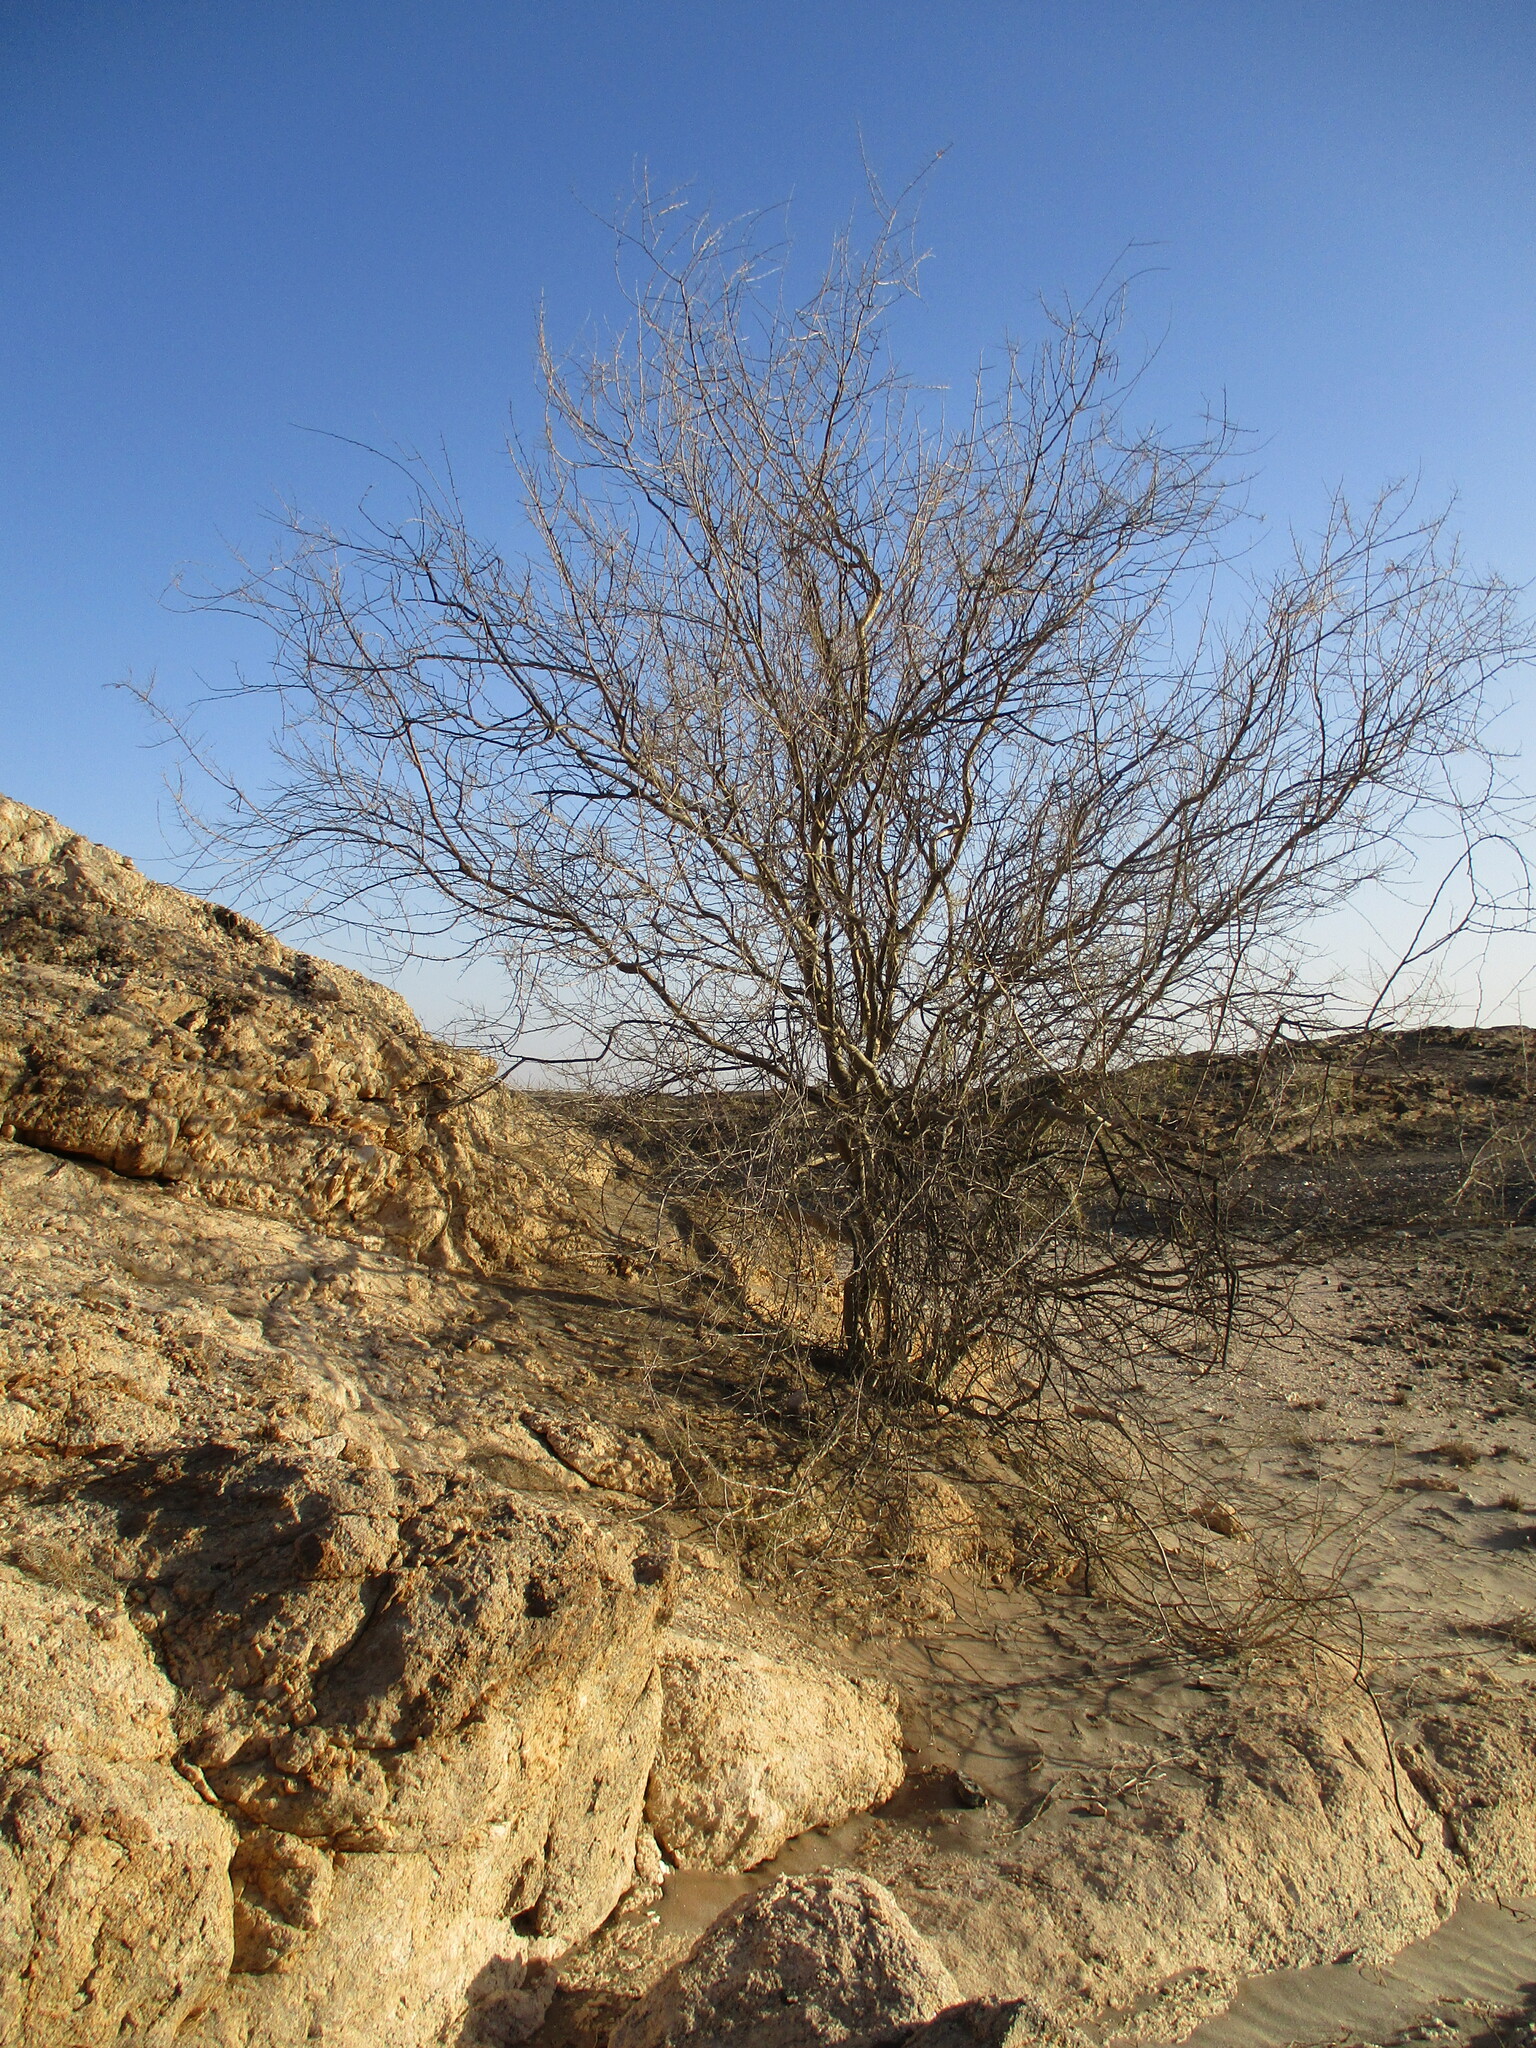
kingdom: Plantae
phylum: Tracheophyta
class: Magnoliopsida
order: Fabales
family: Fabaceae
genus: Parkinsonia
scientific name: Parkinsonia africana
